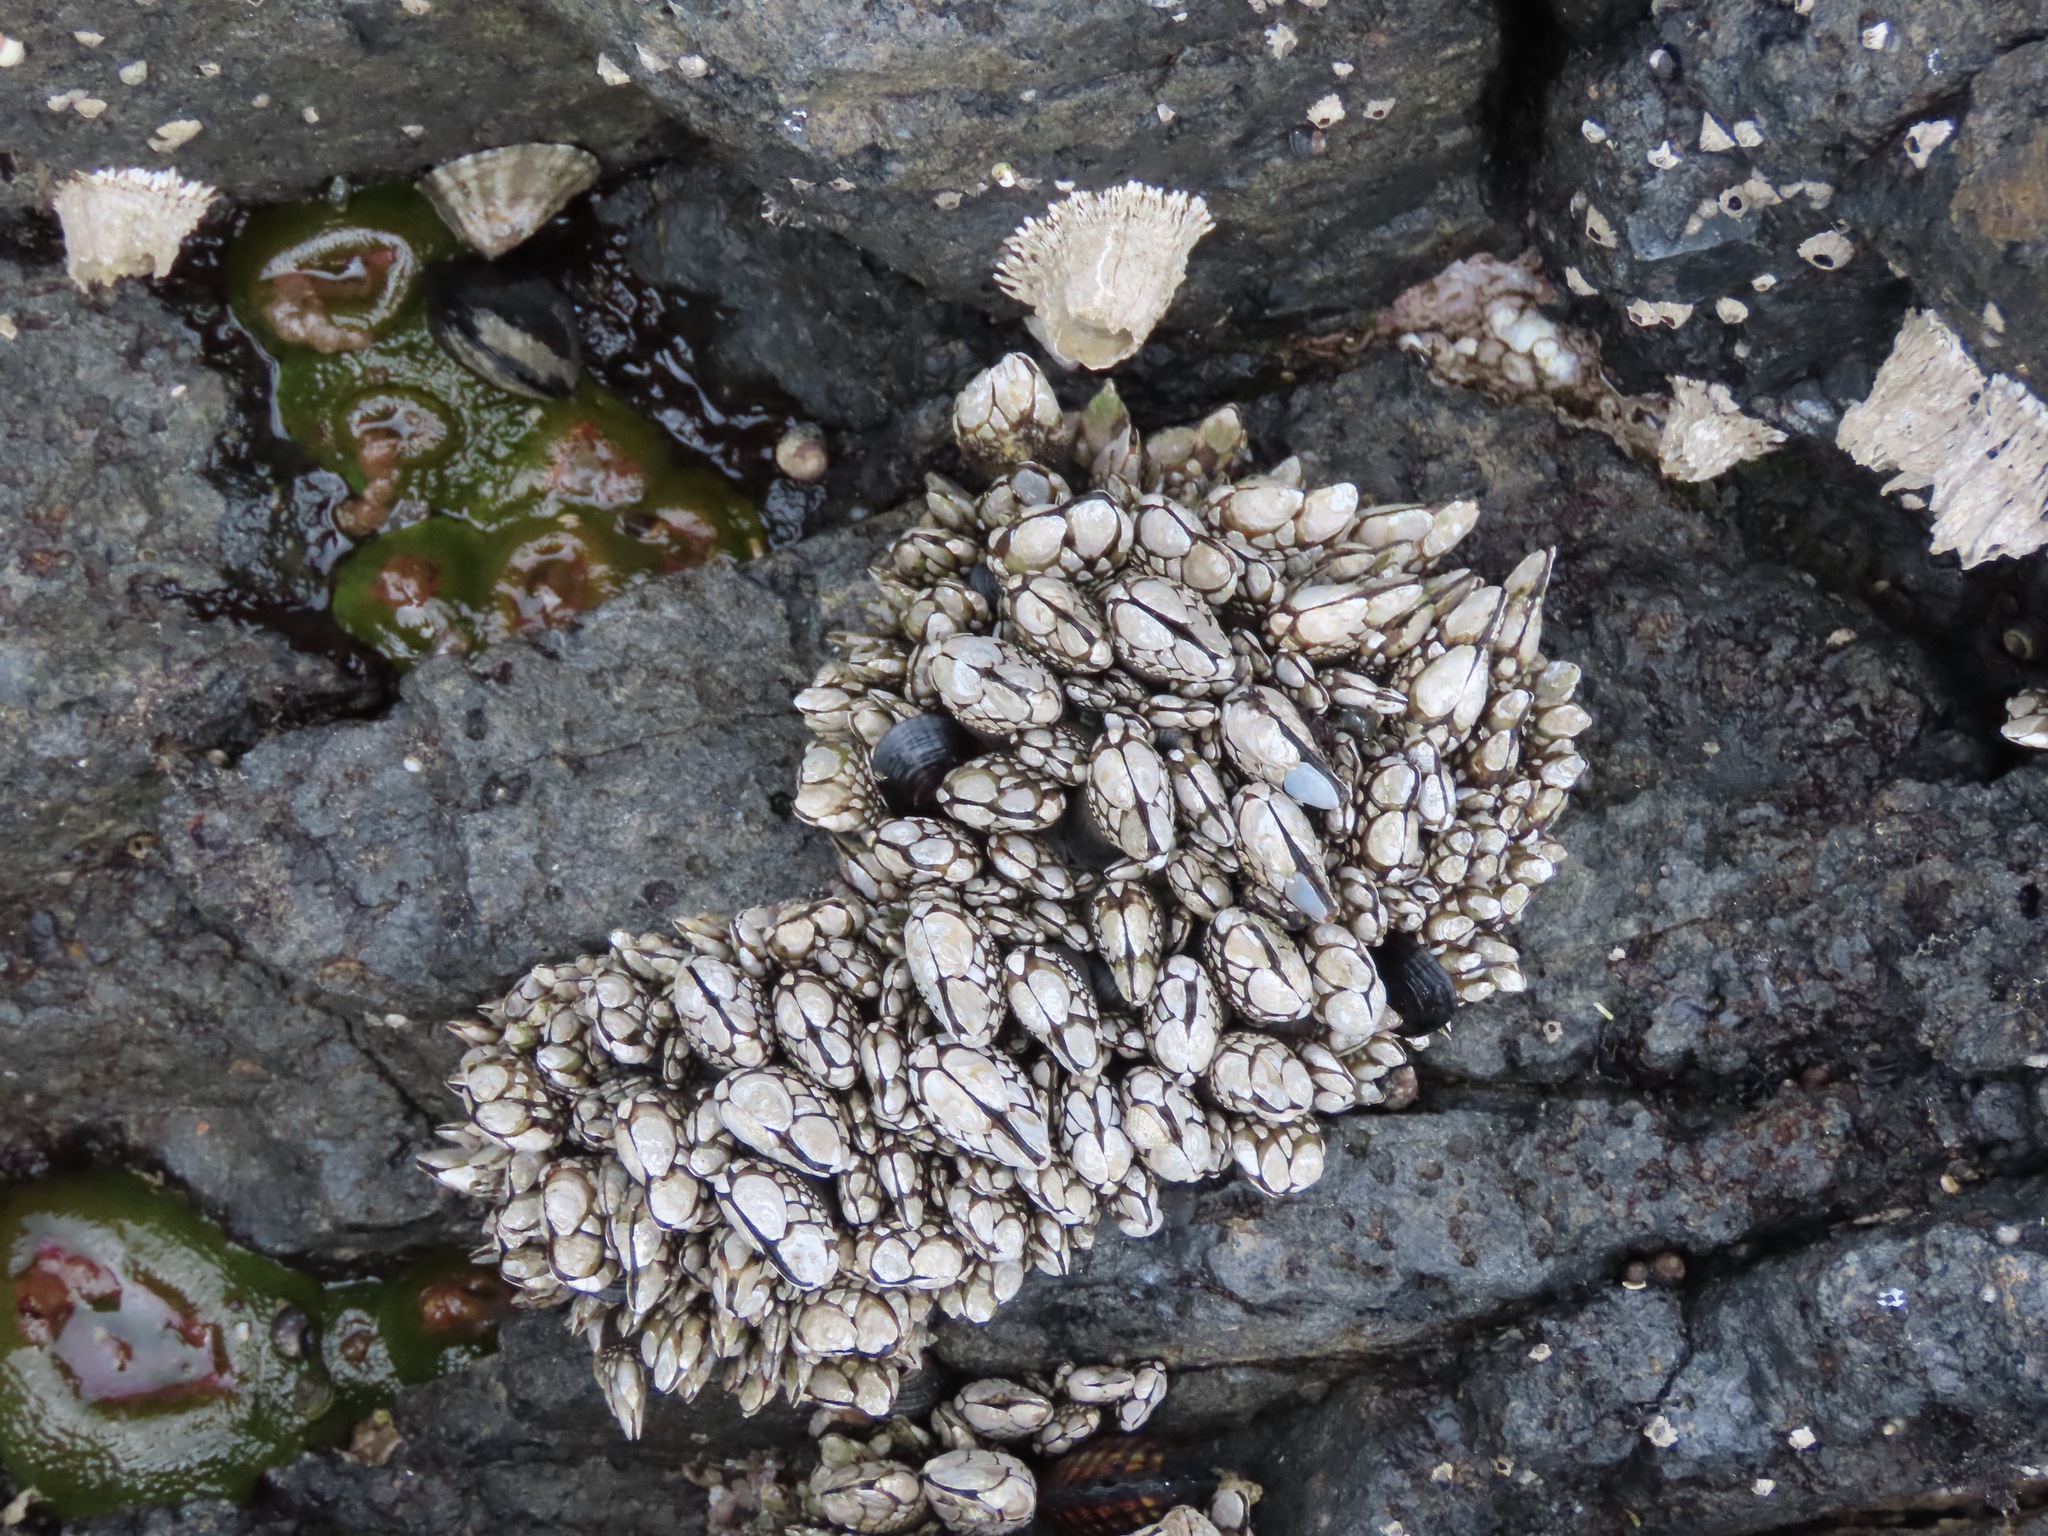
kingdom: Animalia
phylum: Arthropoda
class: Maxillopoda
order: Pedunculata
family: Pollicipedidae
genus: Pollicipes
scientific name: Pollicipes polymerus
